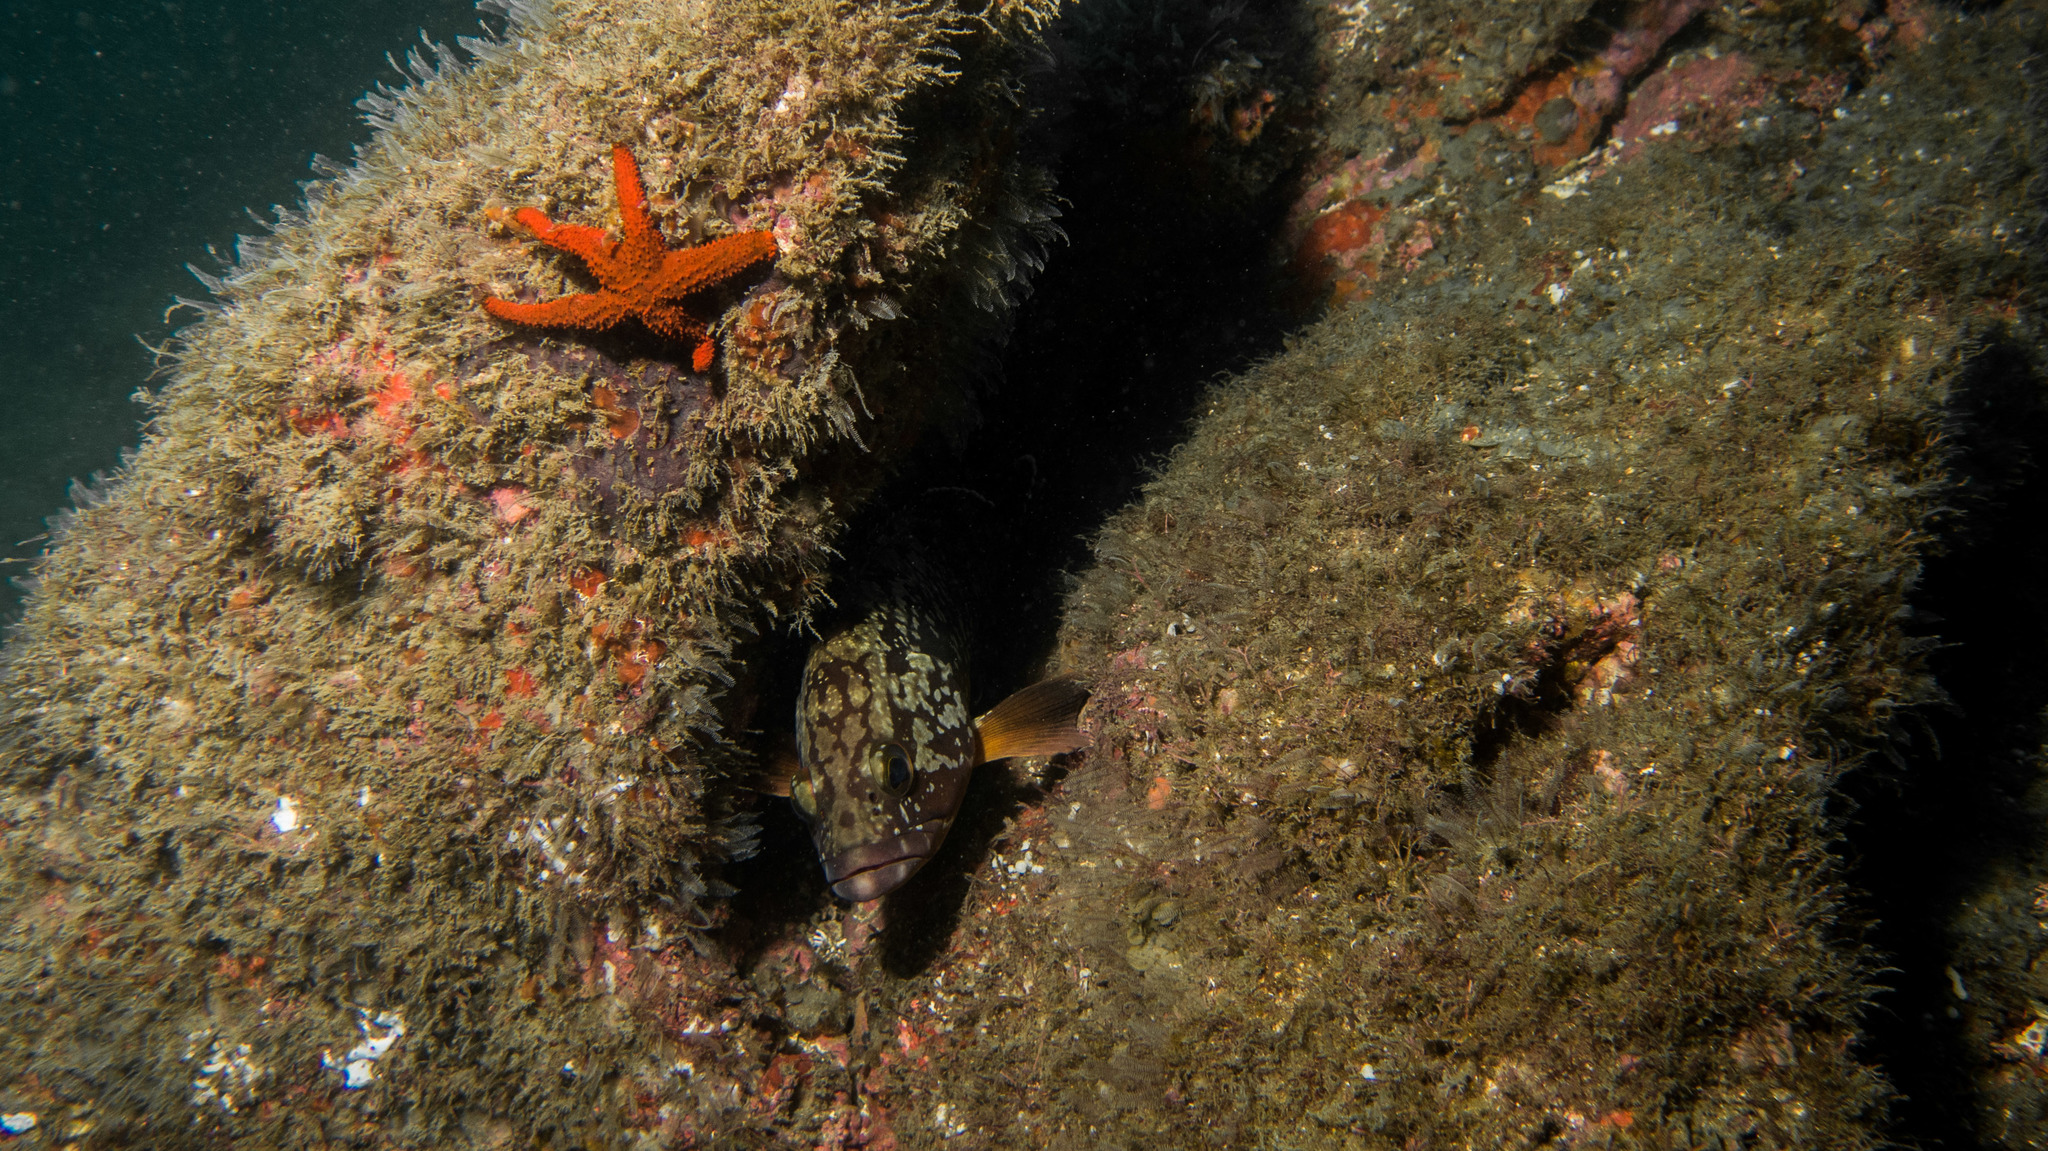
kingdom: Animalia
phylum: Chordata
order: Perciformes
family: Serranidae
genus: Epinephelus
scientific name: Epinephelus marginatus
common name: Dusky grouper
